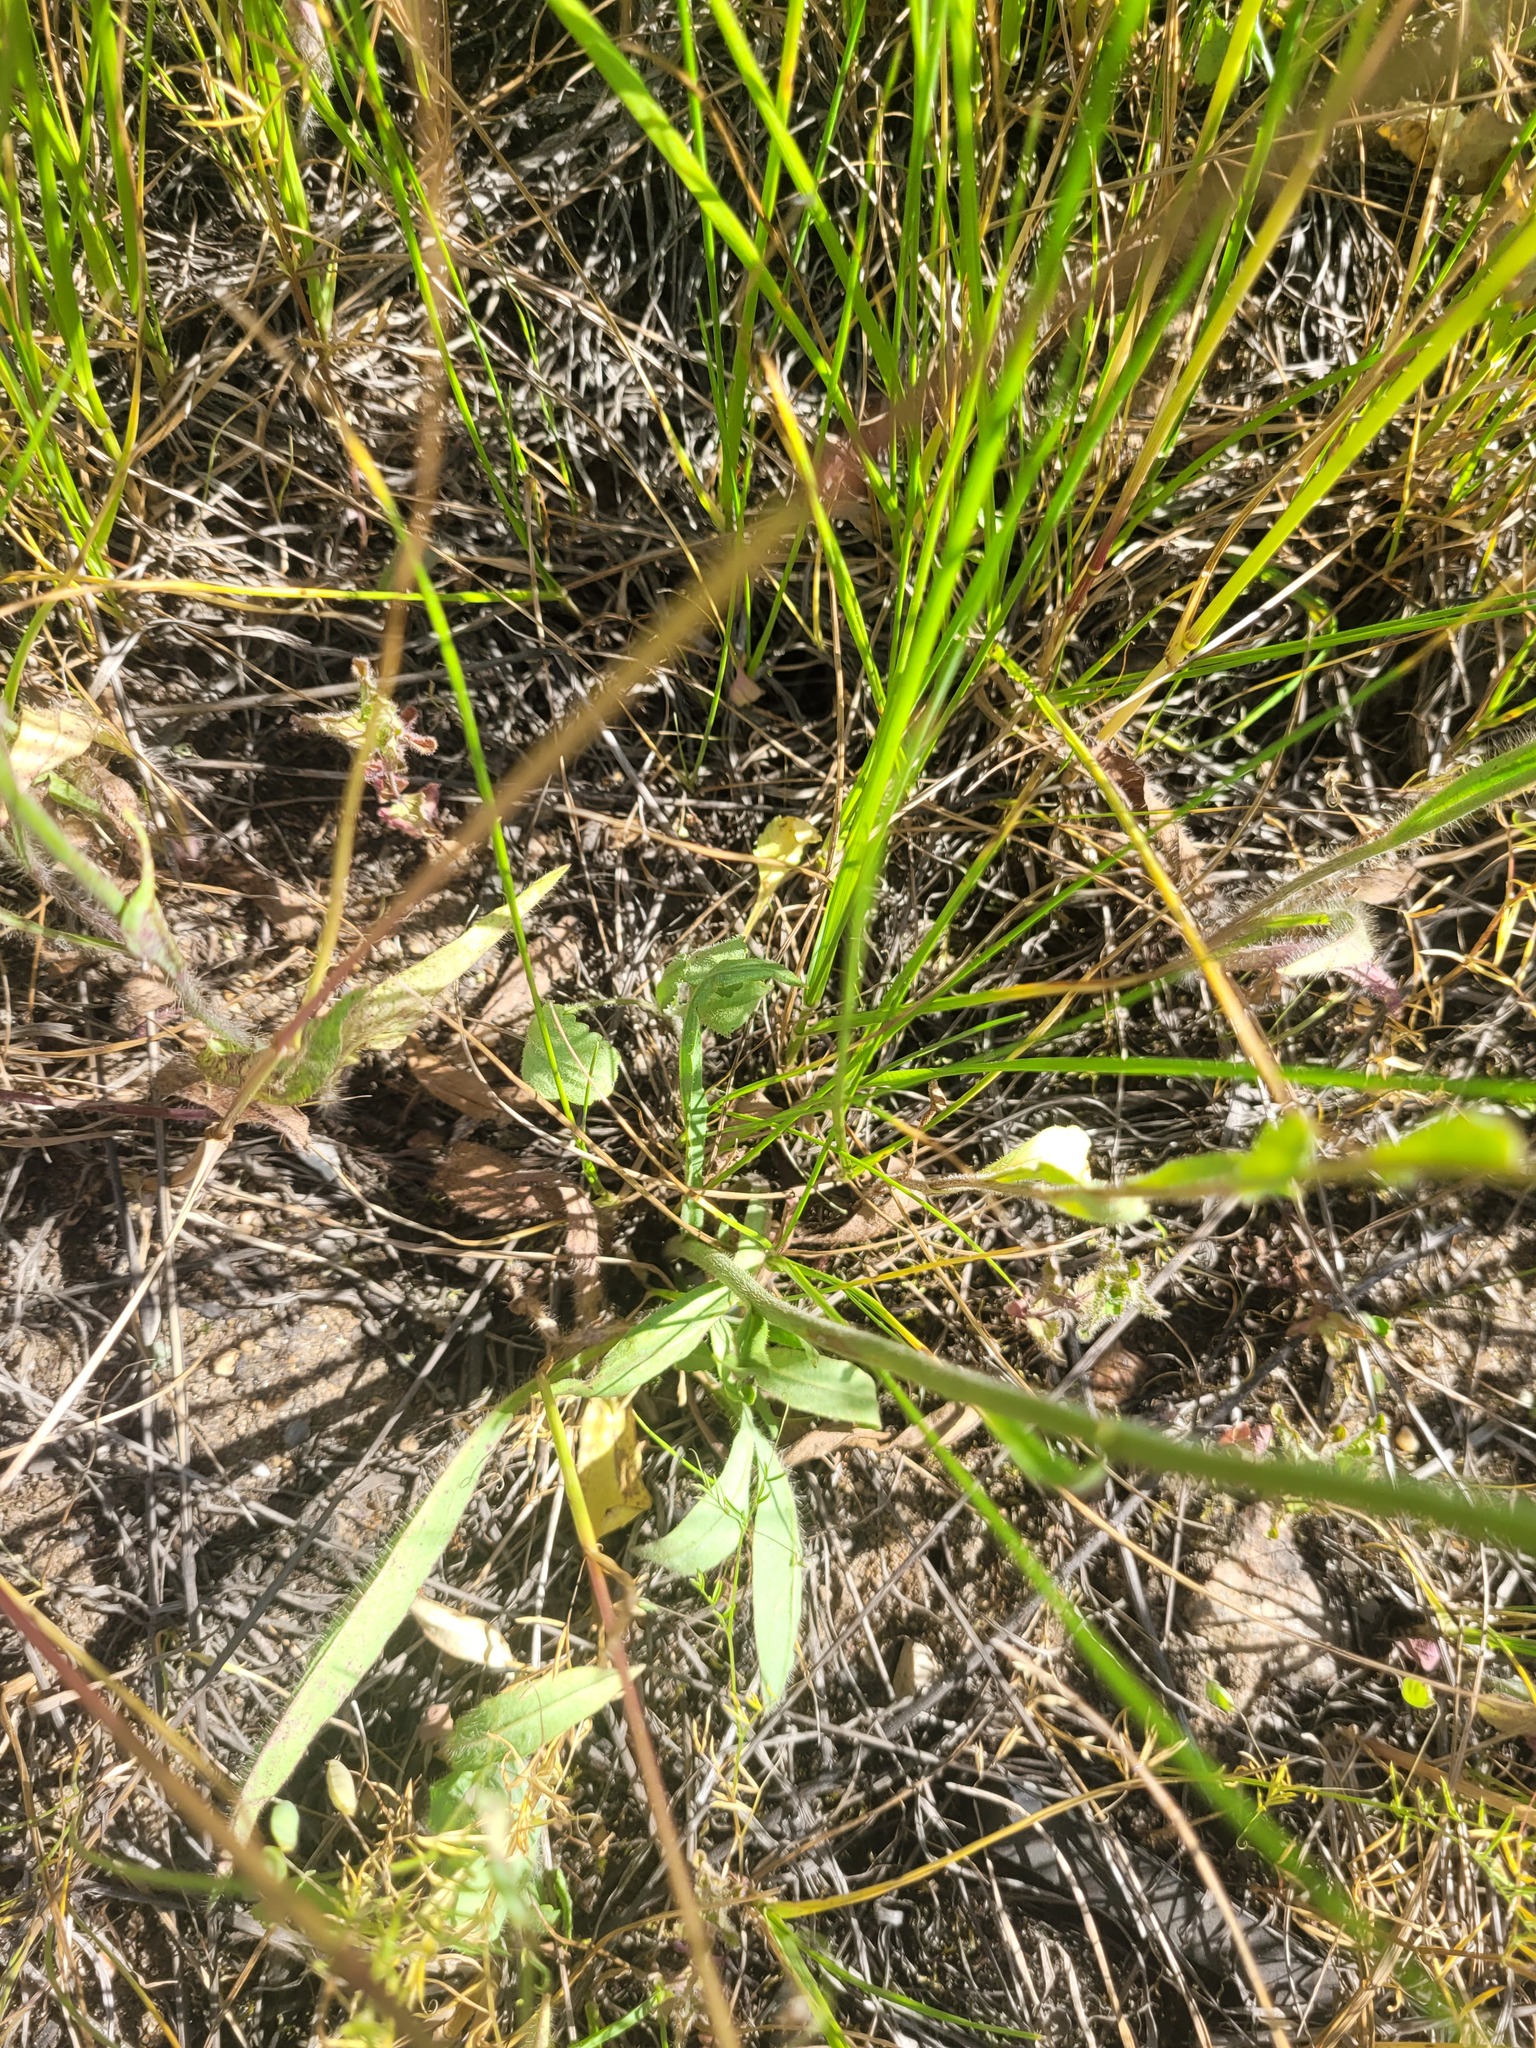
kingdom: Plantae
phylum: Tracheophyta
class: Magnoliopsida
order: Asterales
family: Asteraceae
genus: Pilosella
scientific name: Pilosella
